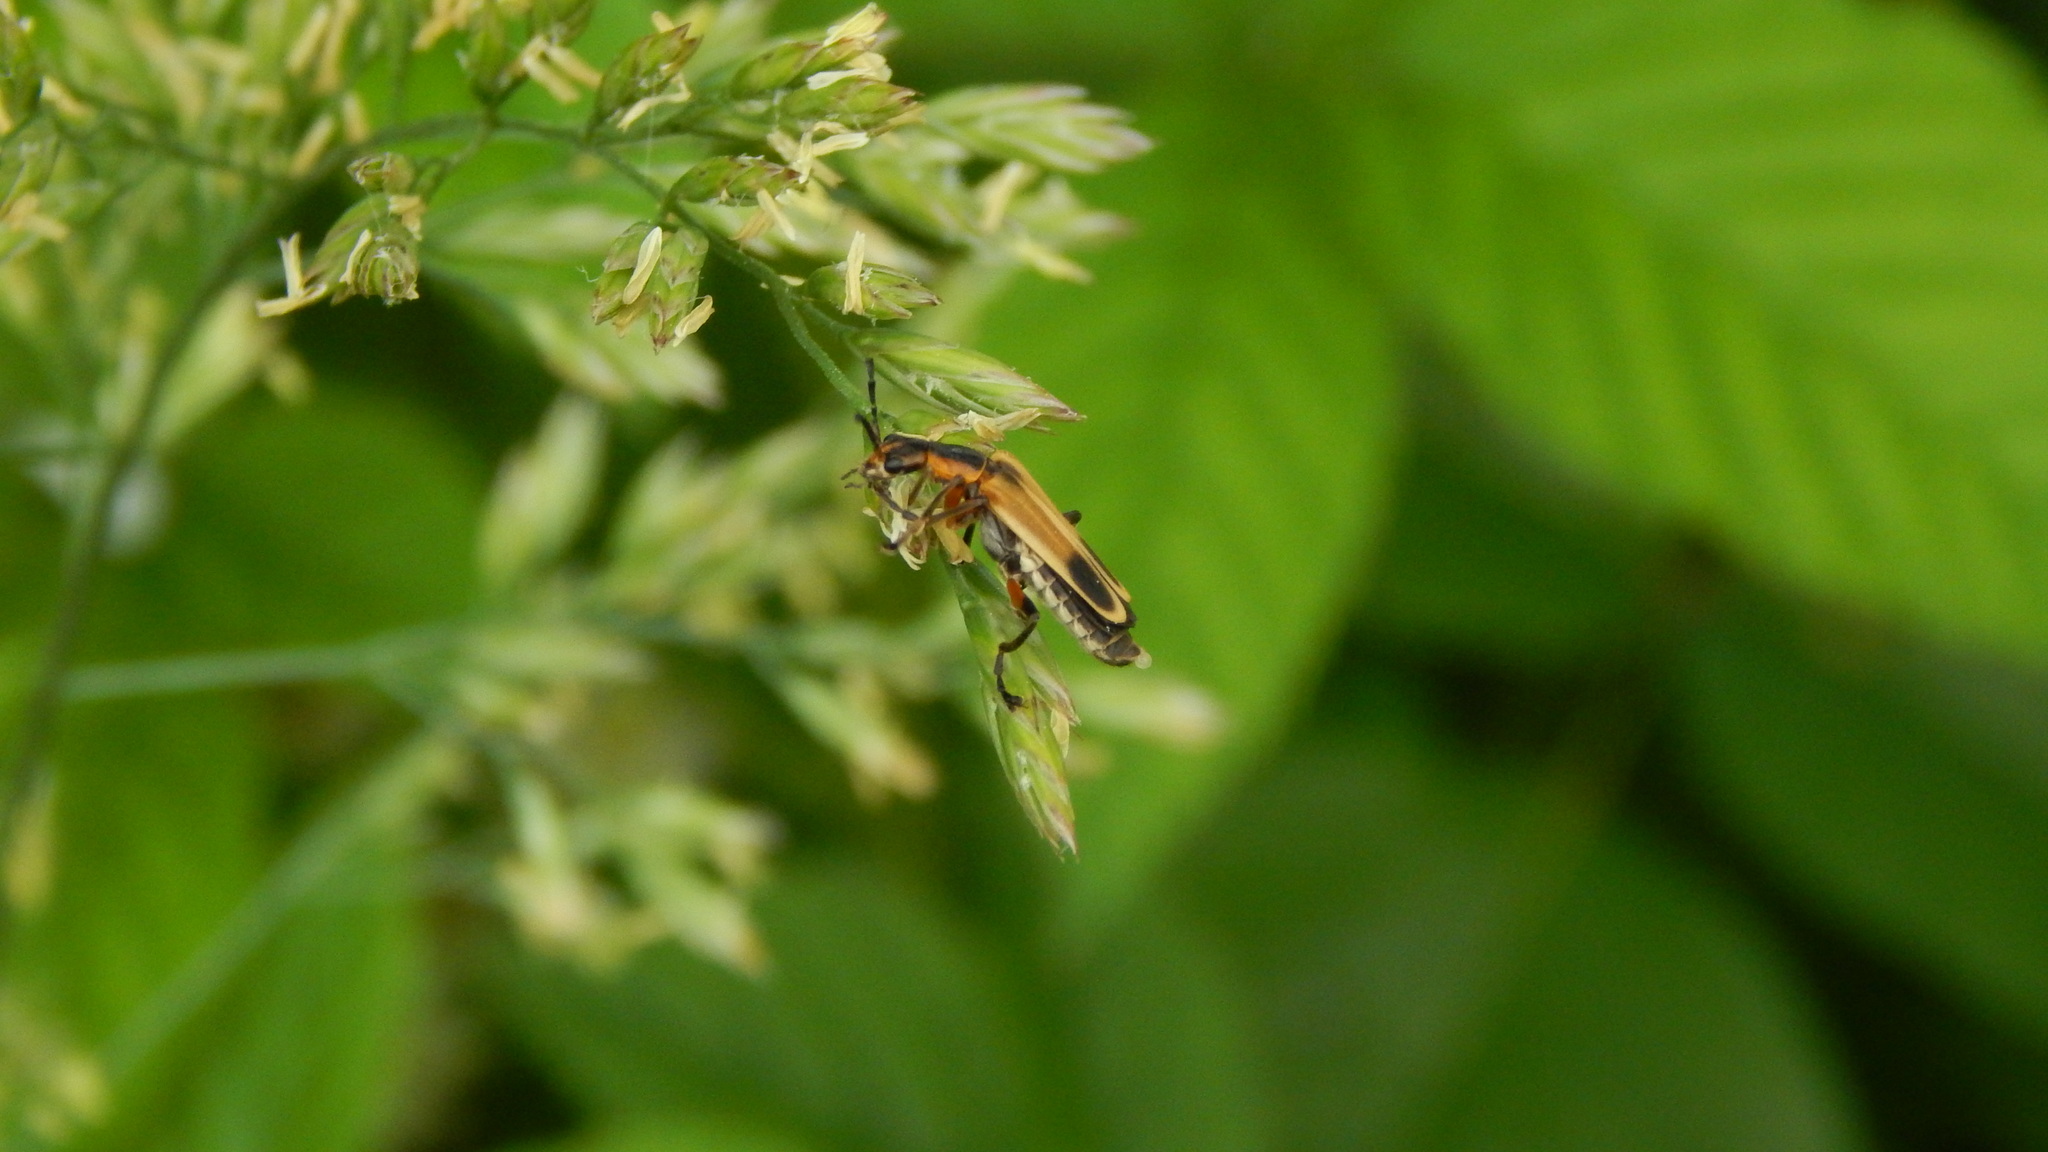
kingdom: Animalia
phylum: Arthropoda
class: Insecta
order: Coleoptera
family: Cantharidae
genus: Chauliognathus
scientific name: Chauliognathus marginatus
